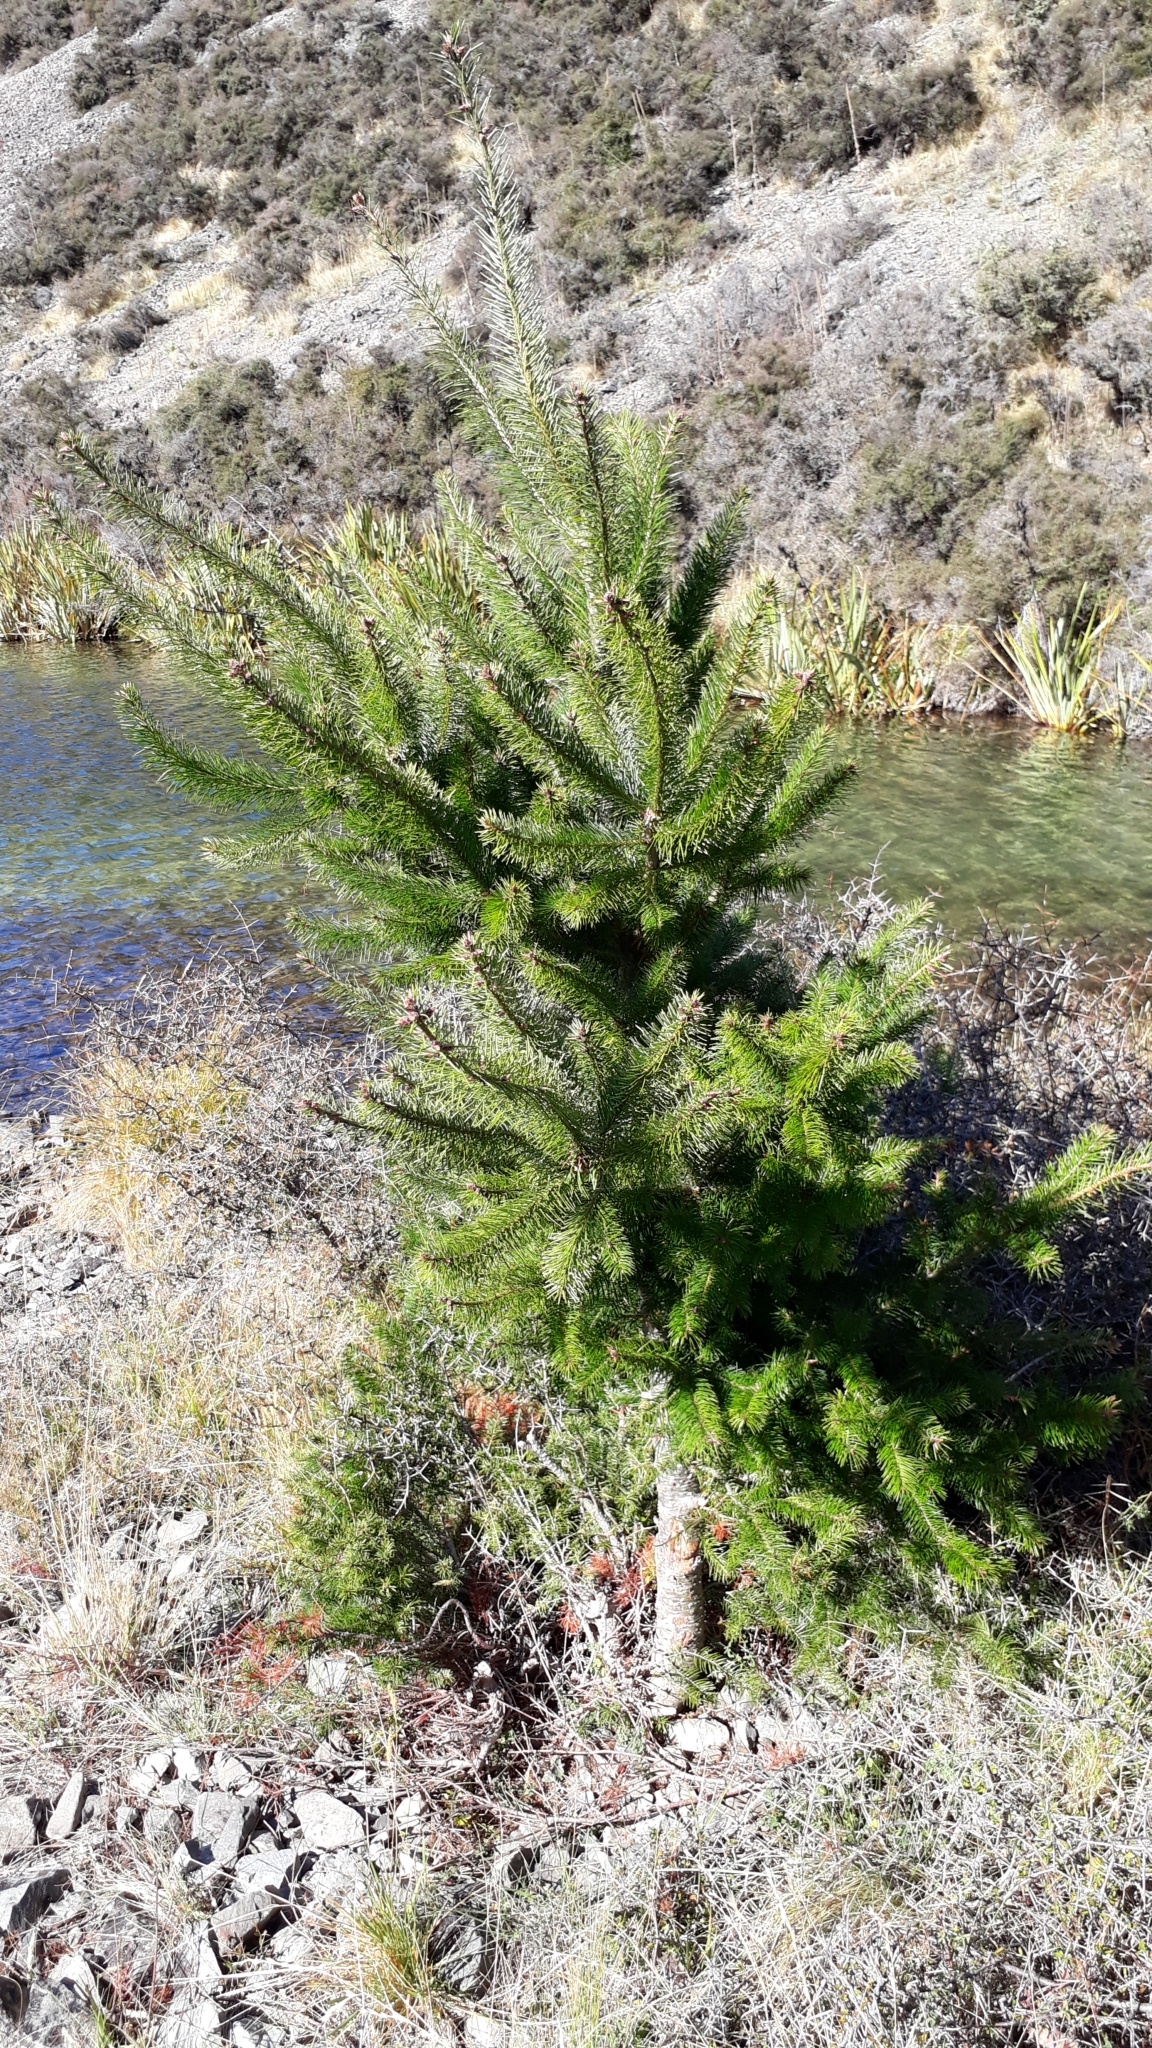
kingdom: Plantae
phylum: Tracheophyta
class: Pinopsida
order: Pinales
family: Pinaceae
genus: Pseudotsuga
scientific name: Pseudotsuga menziesii
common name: Douglas fir
